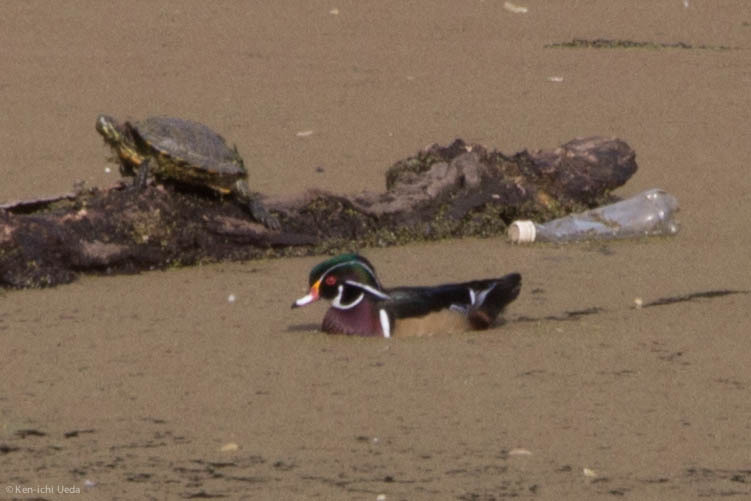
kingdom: Animalia
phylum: Chordata
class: Aves
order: Anseriformes
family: Anatidae
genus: Aix
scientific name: Aix sponsa
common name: Wood duck
